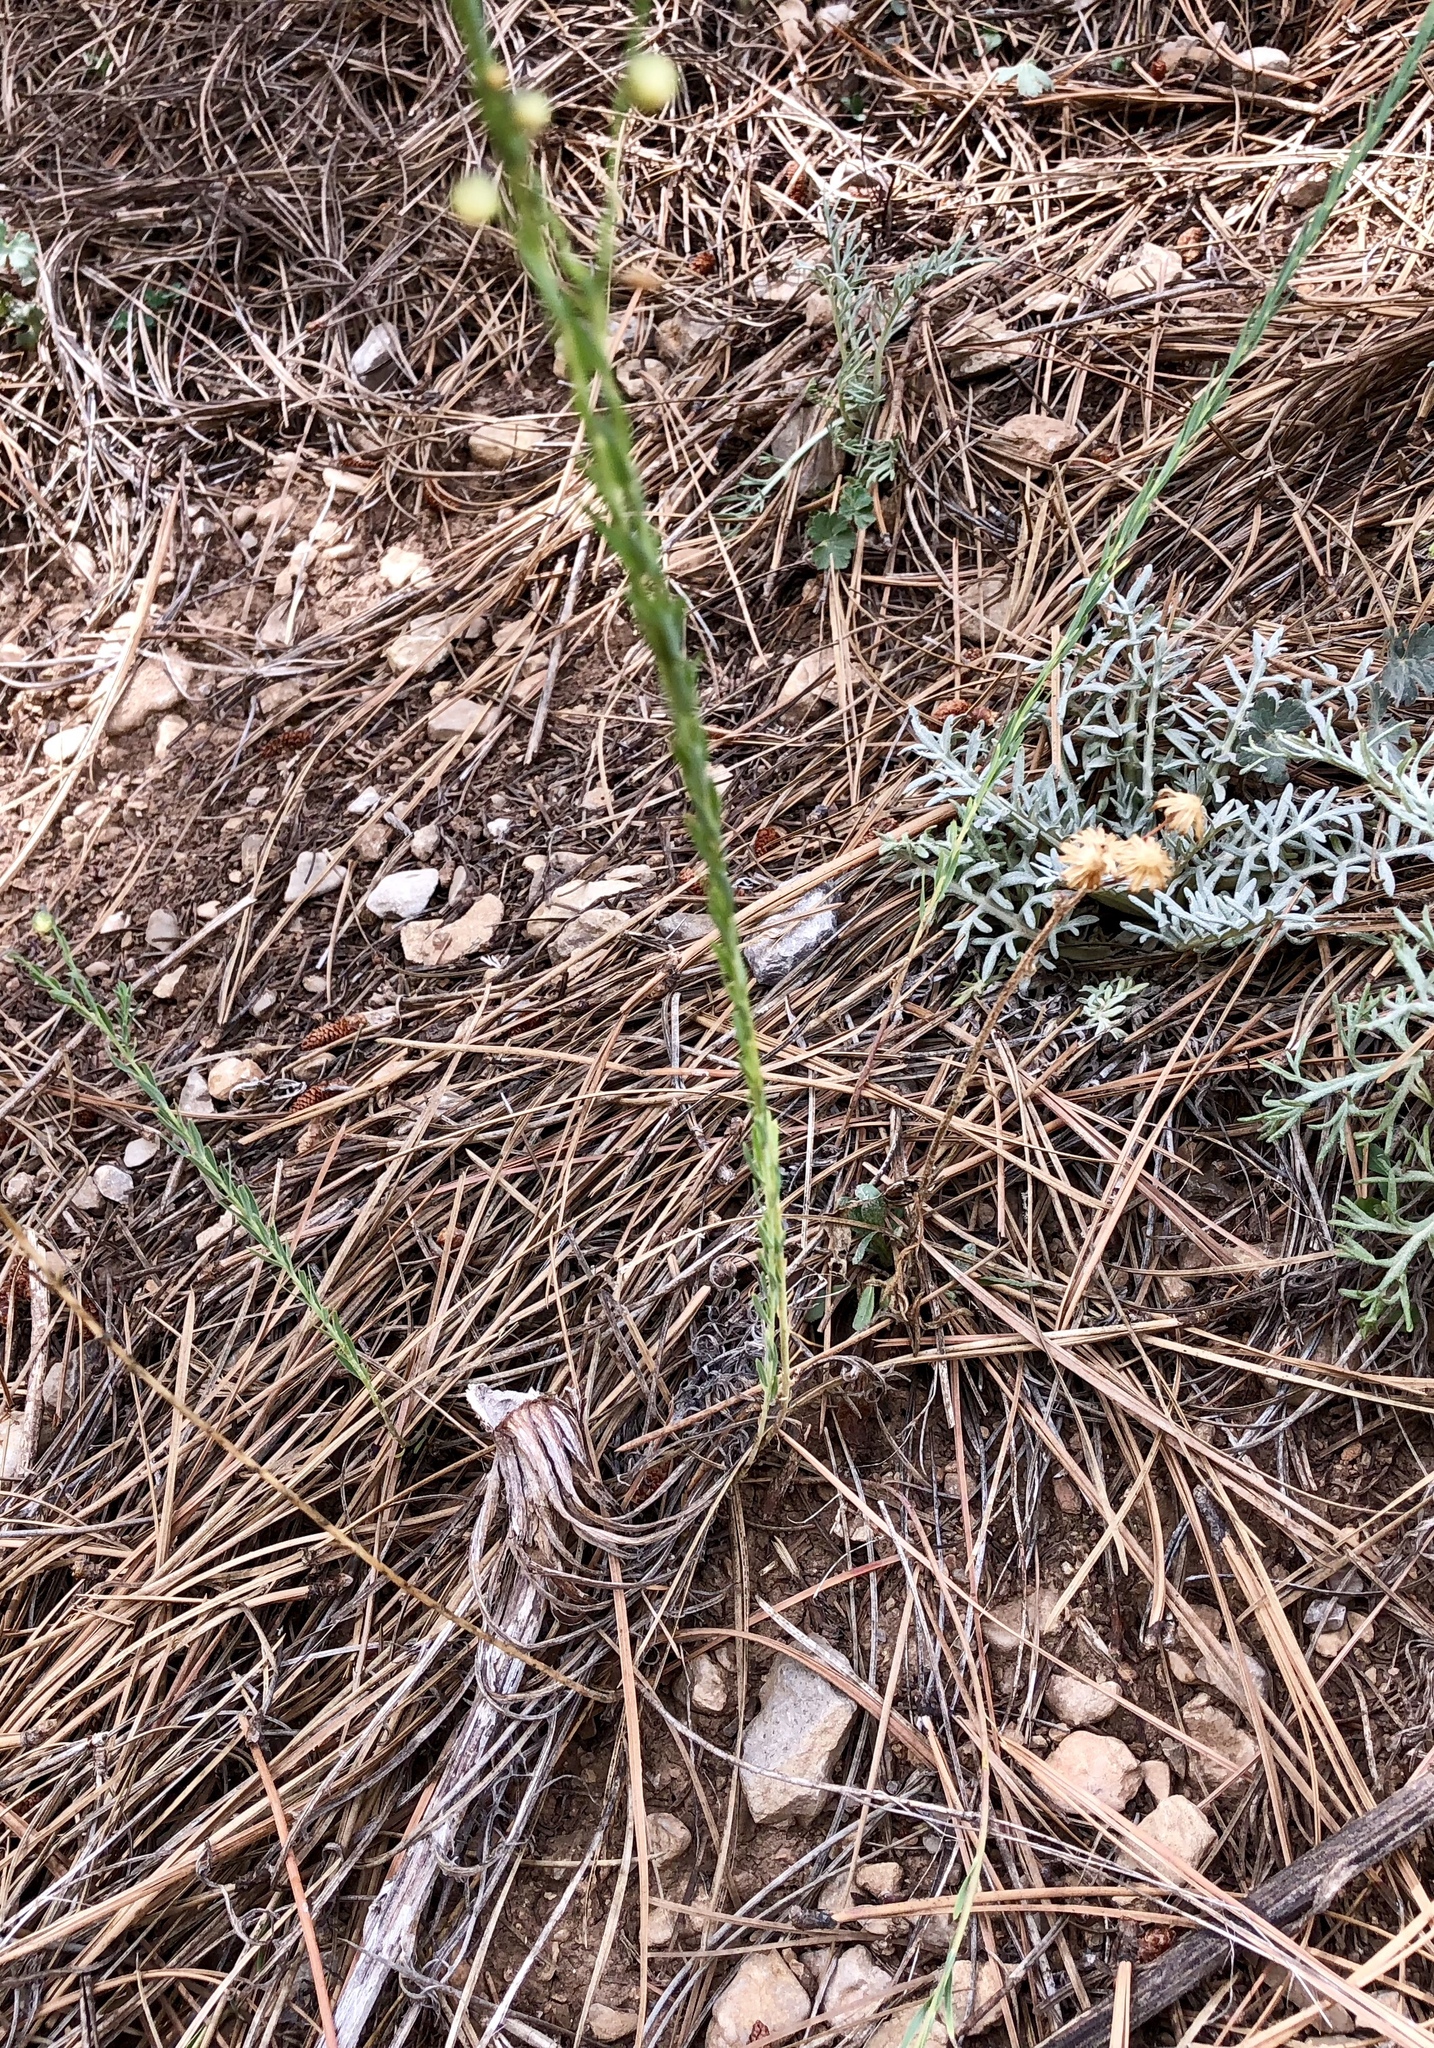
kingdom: Plantae
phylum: Tracheophyta
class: Magnoliopsida
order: Malpighiales
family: Linaceae
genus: Linum
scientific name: Linum lewisii
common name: Prairie flax
